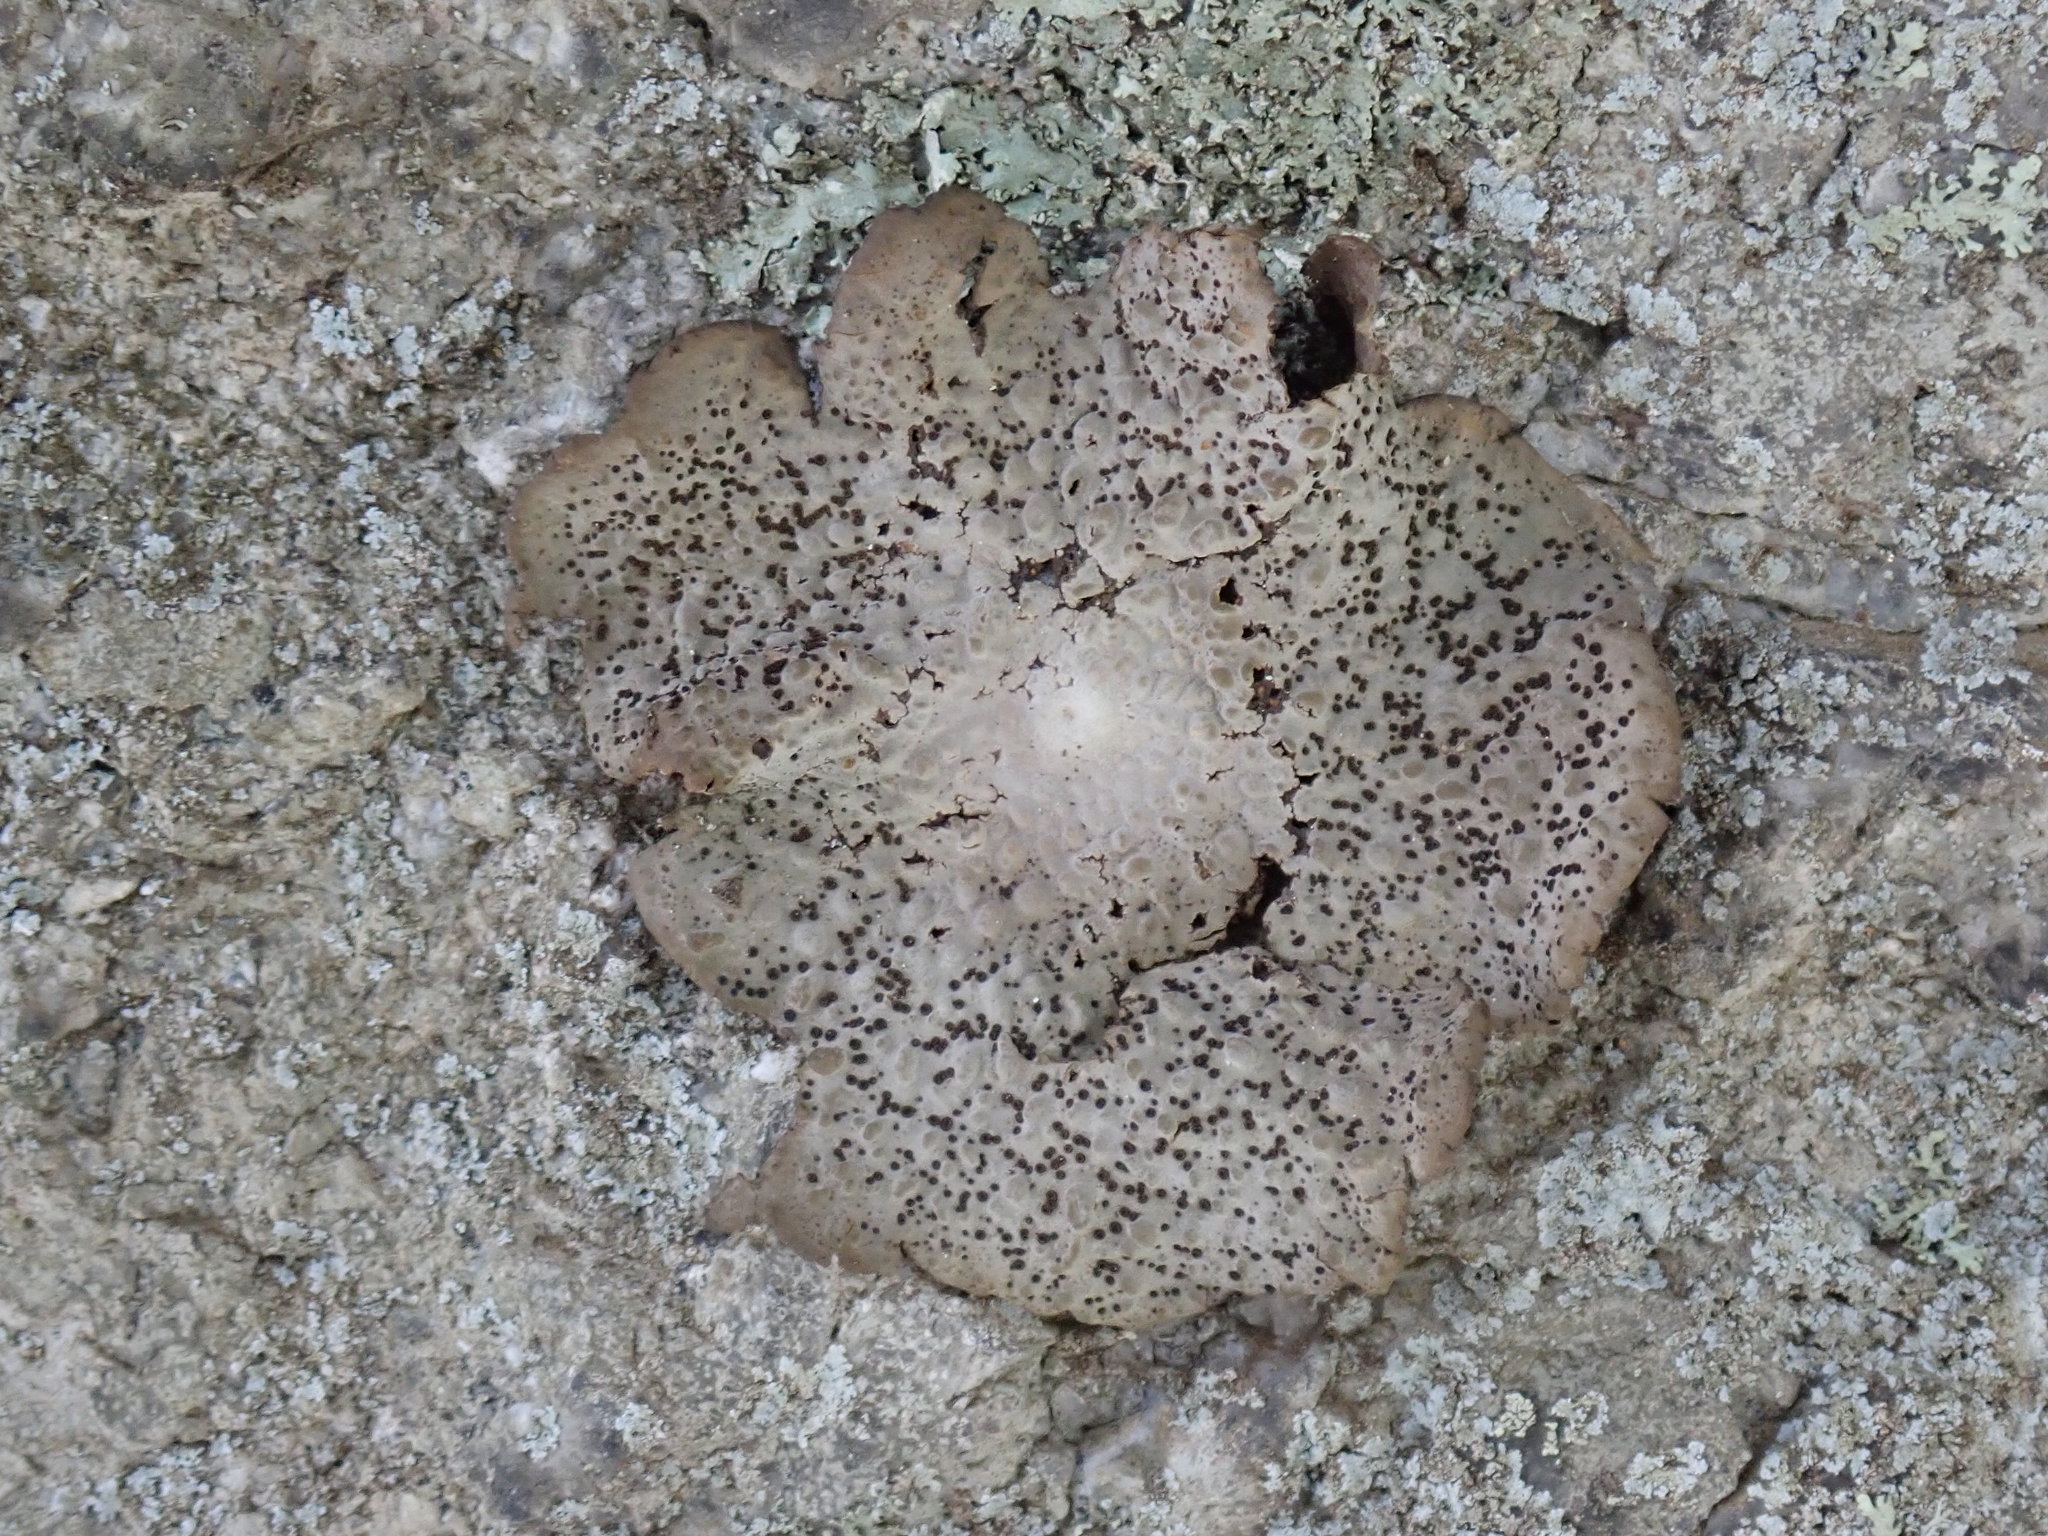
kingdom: Fungi
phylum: Ascomycota
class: Lecanoromycetes
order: Umbilicariales
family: Umbilicariaceae
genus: Lasallia
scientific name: Lasallia papulosa
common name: Common toadskin lichen
